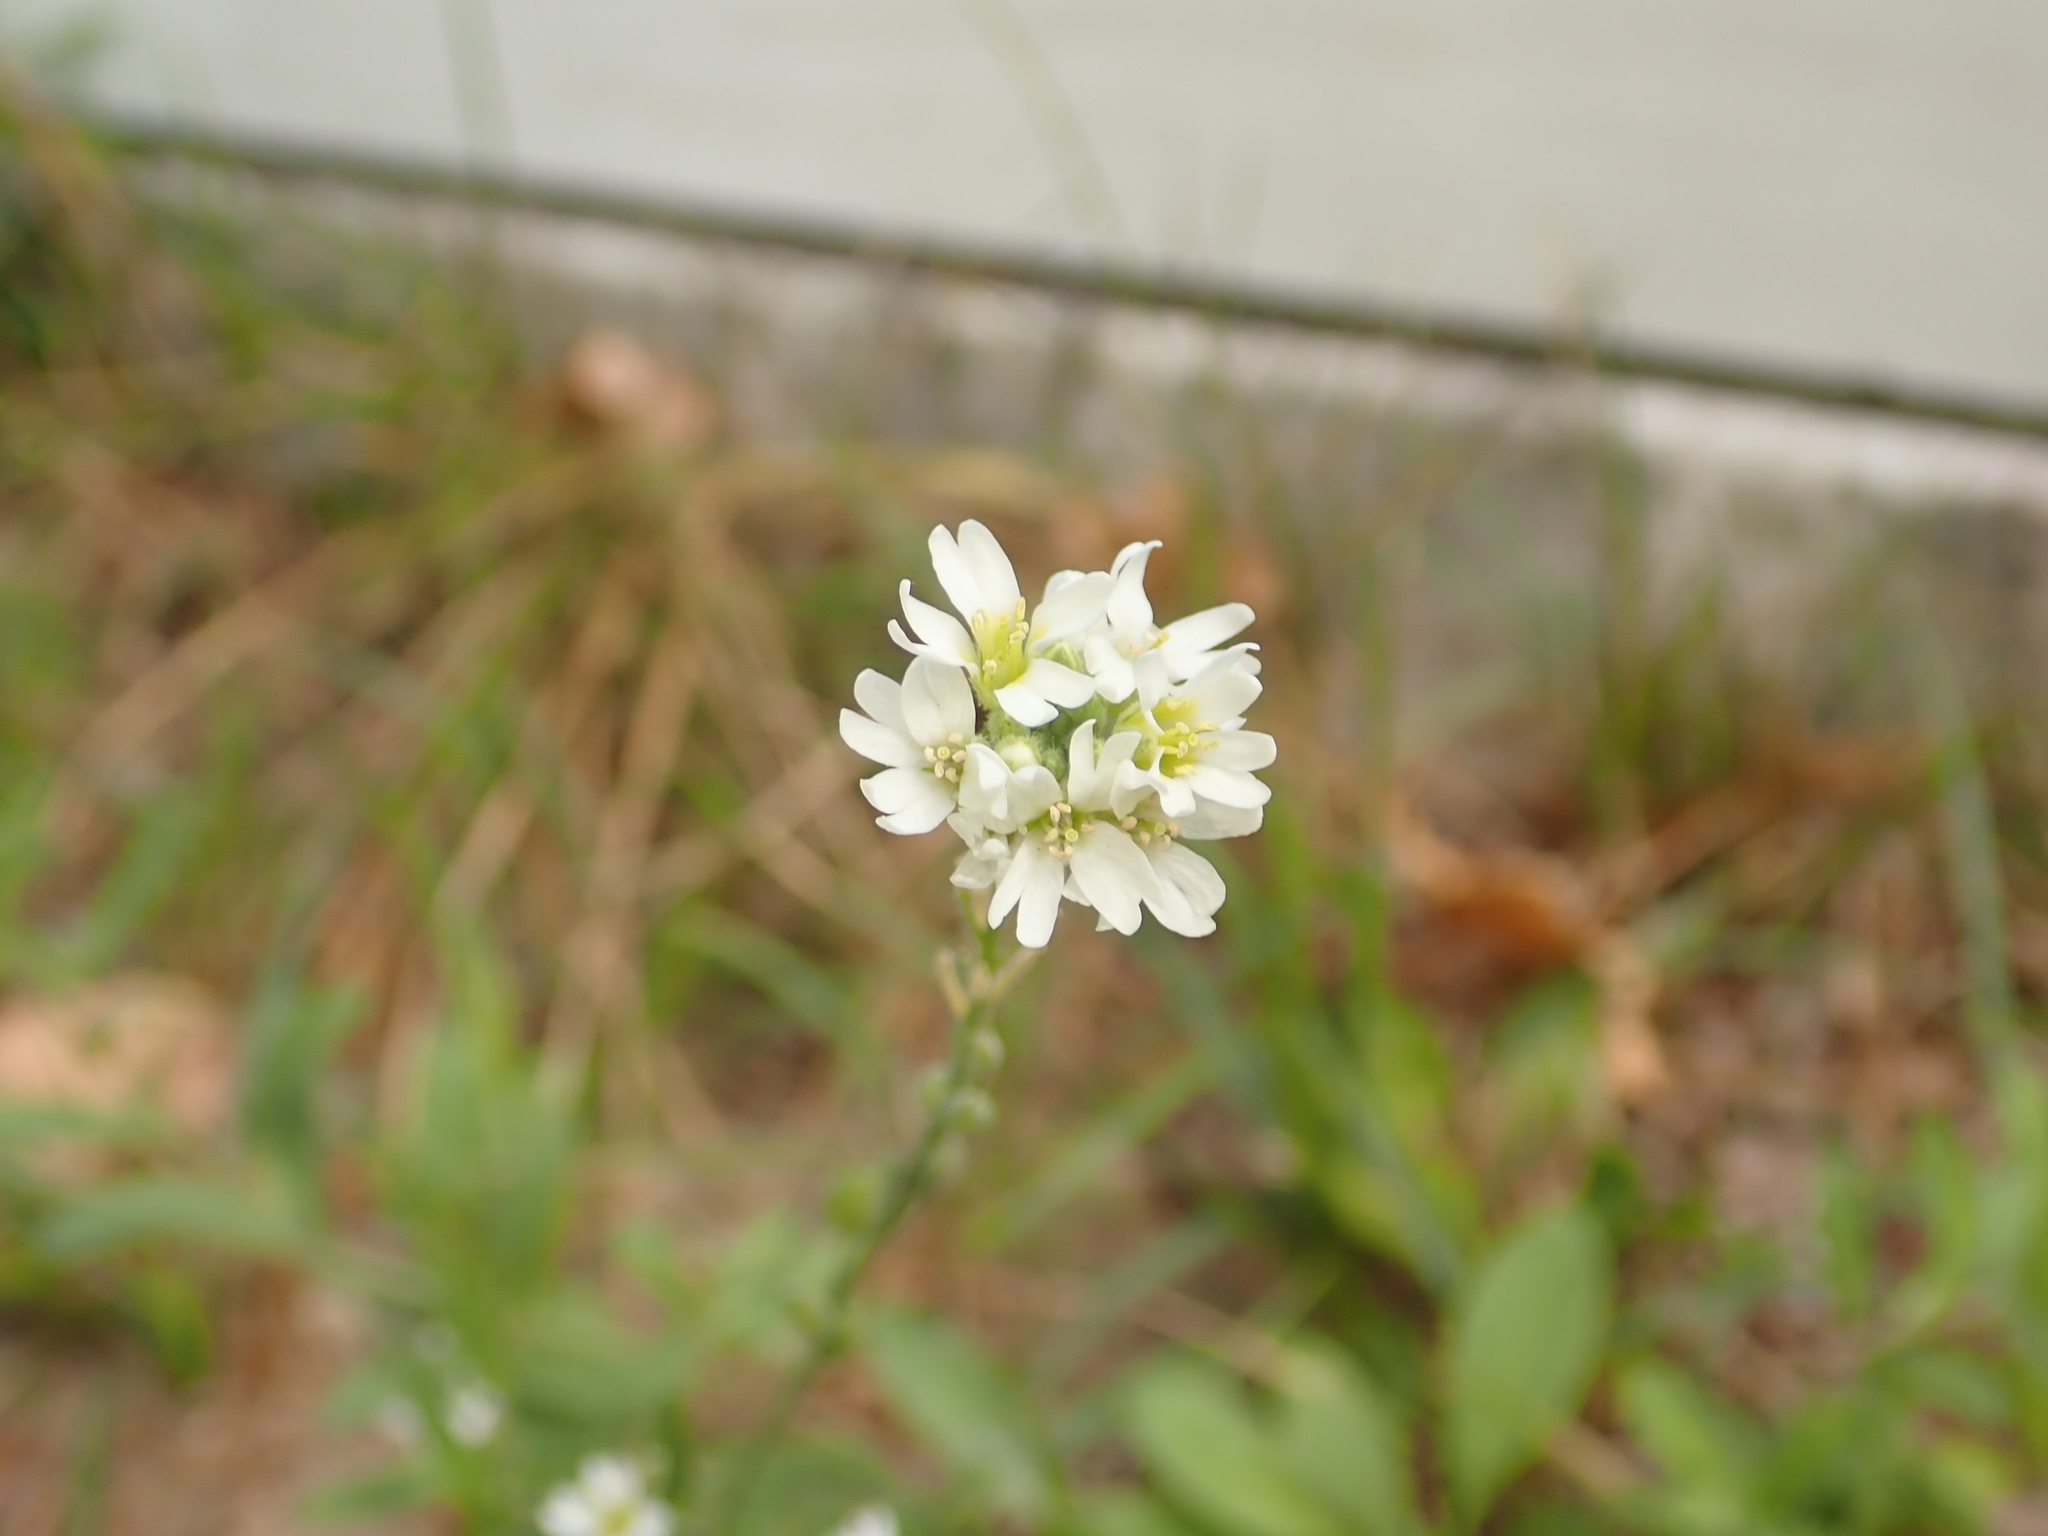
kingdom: Plantae
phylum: Tracheophyta
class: Magnoliopsida
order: Brassicales
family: Brassicaceae
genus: Berteroa
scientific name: Berteroa incana
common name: Hoary alison
